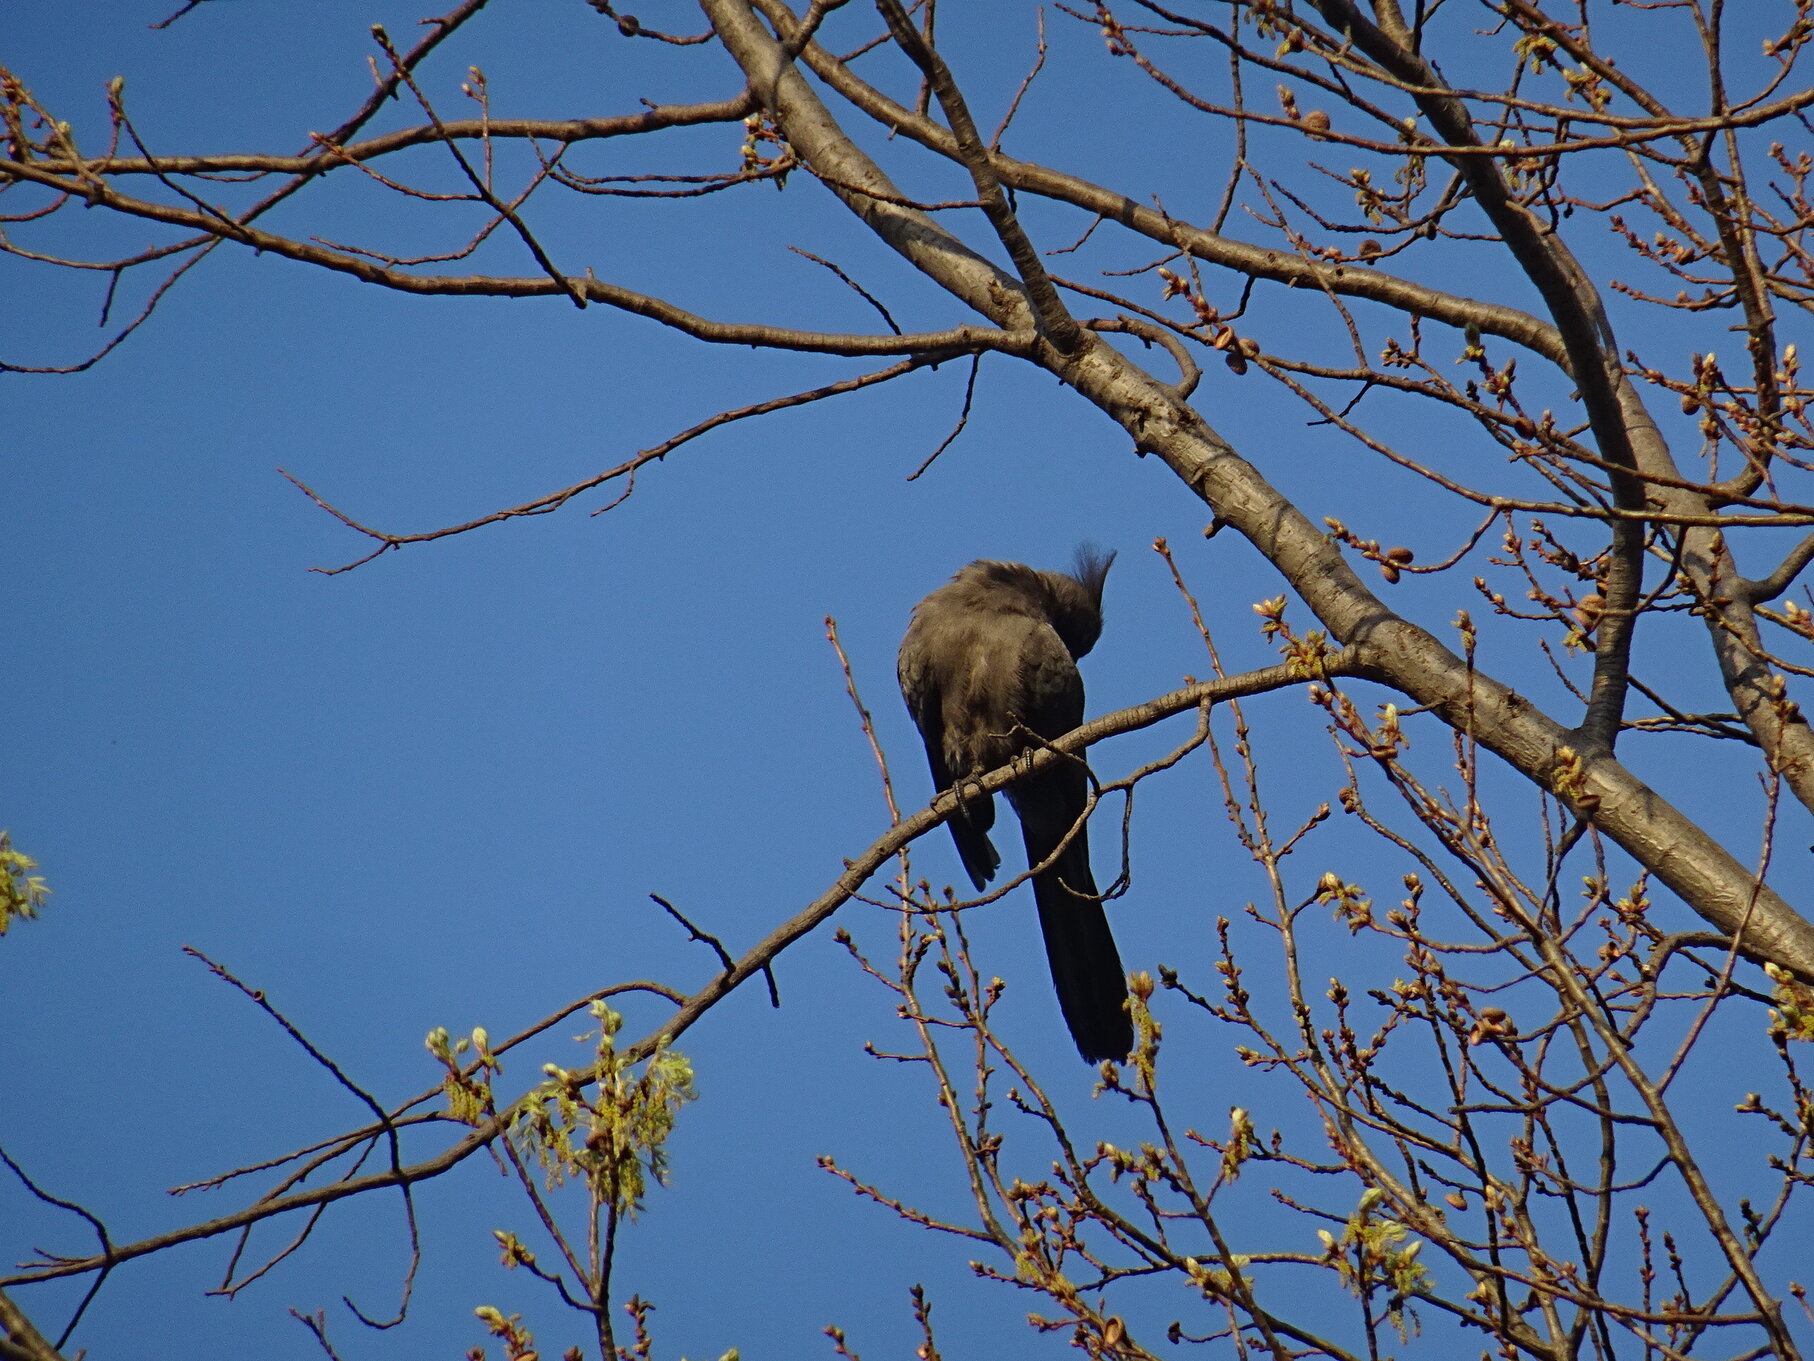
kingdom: Animalia
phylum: Chordata
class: Aves
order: Musophagiformes
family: Musophagidae
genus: Corythaixoides
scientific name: Corythaixoides concolor
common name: Grey go-away-bird
